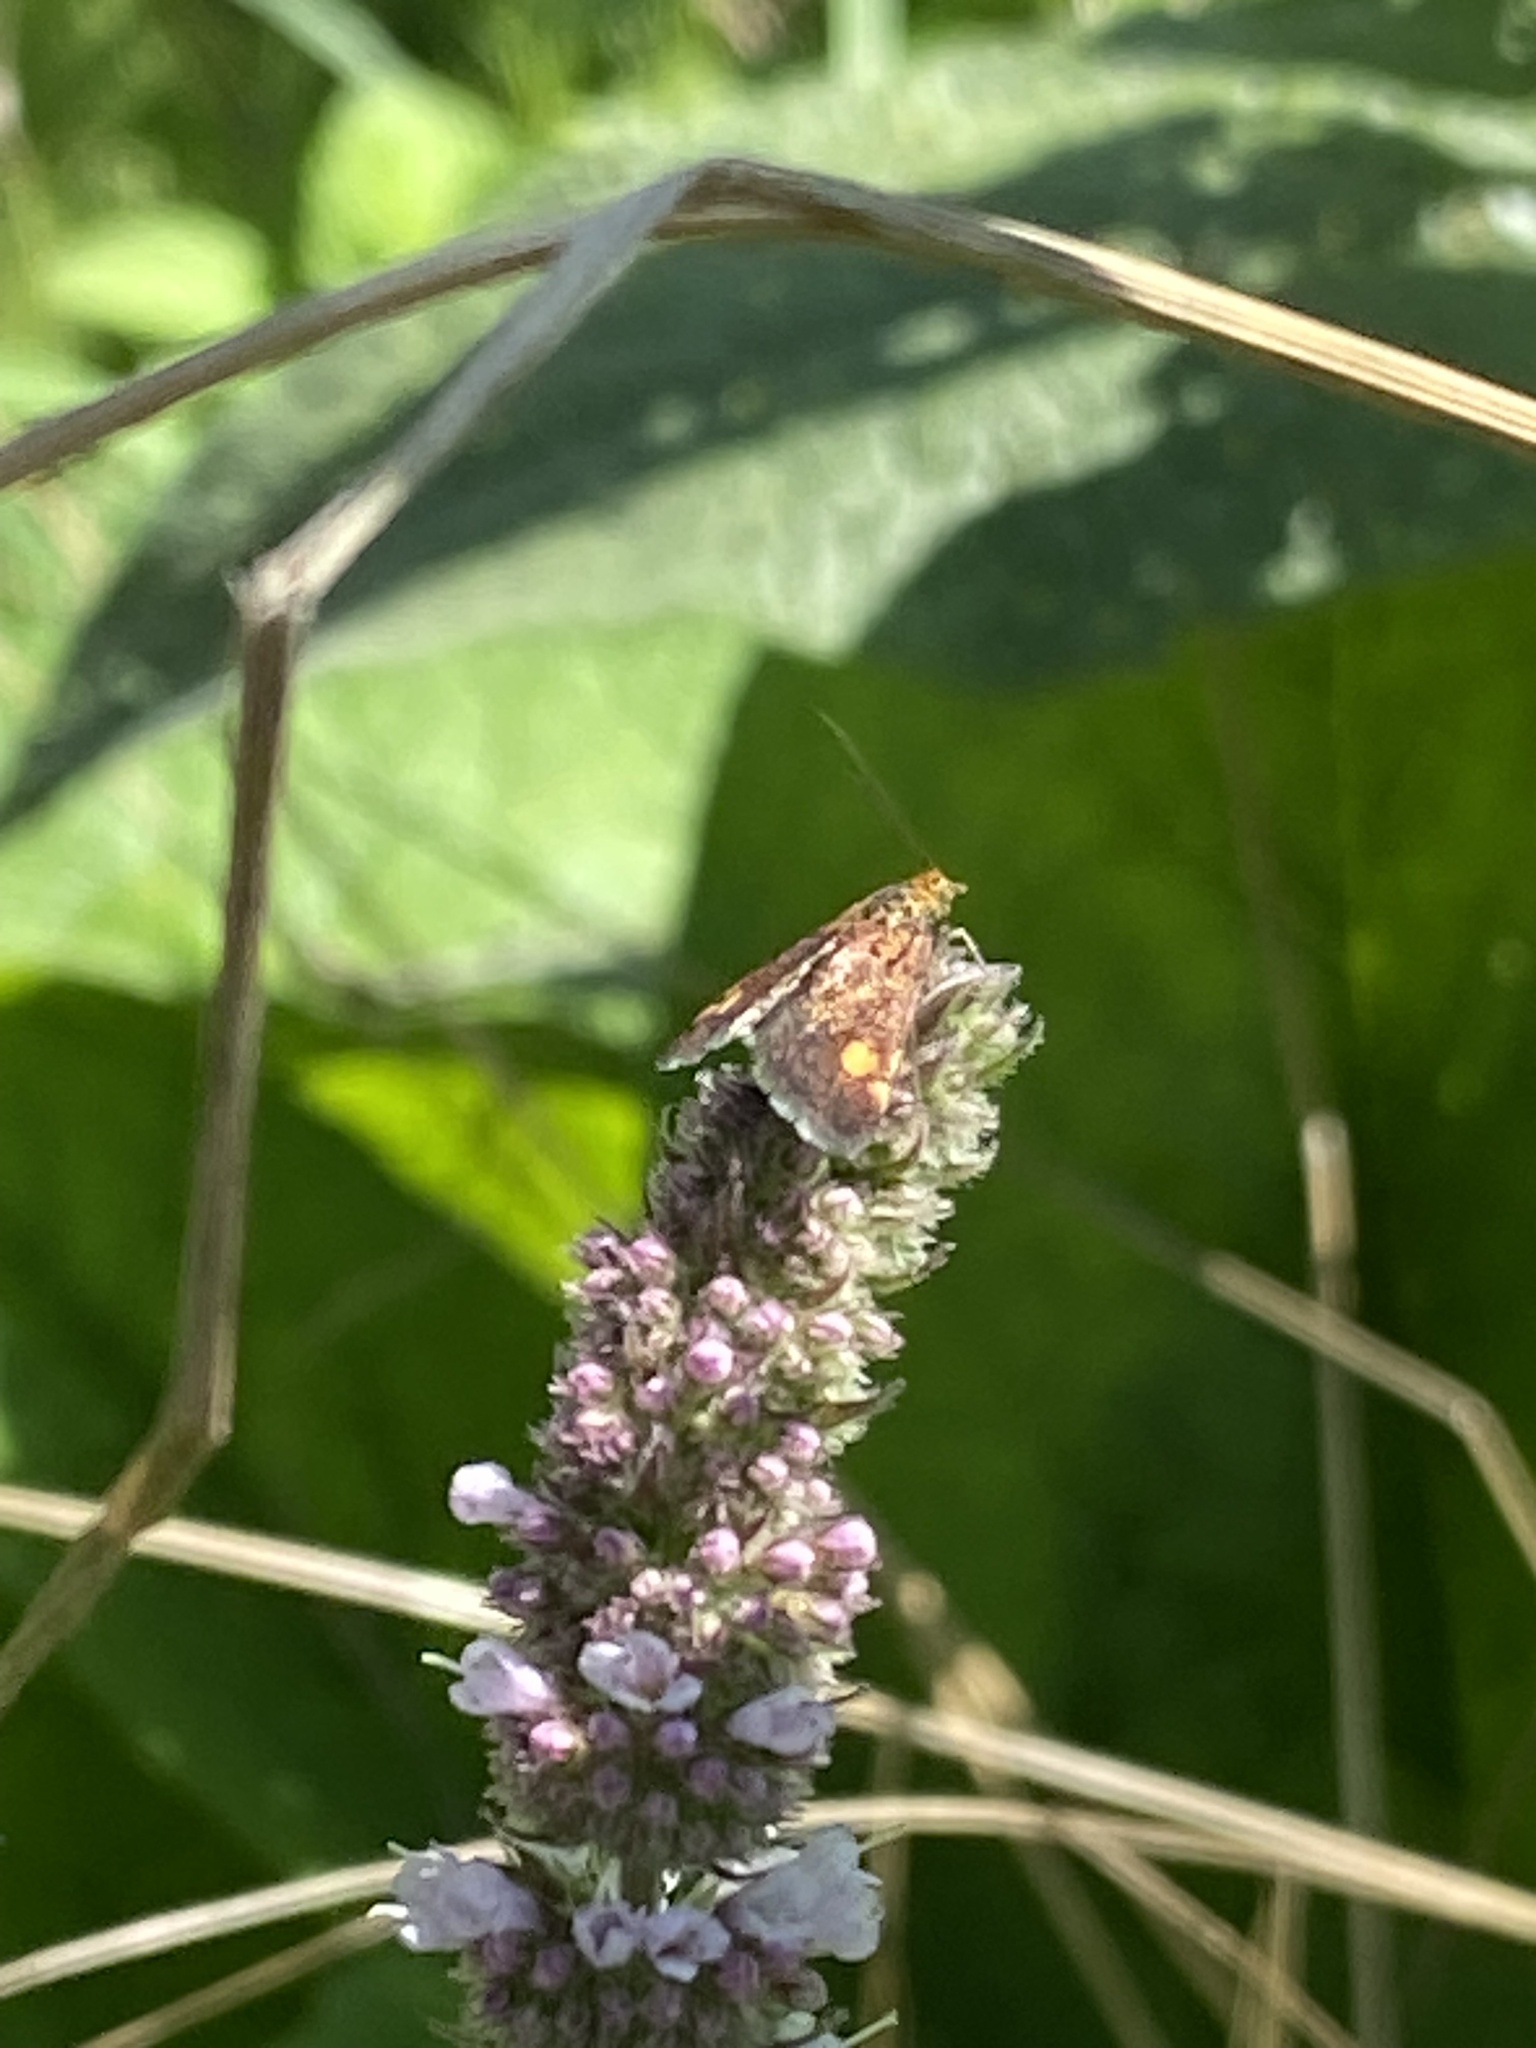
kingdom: Animalia
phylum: Arthropoda
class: Insecta
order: Lepidoptera
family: Crambidae
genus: Pyrausta
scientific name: Pyrausta aurata
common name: Small purple & gold
